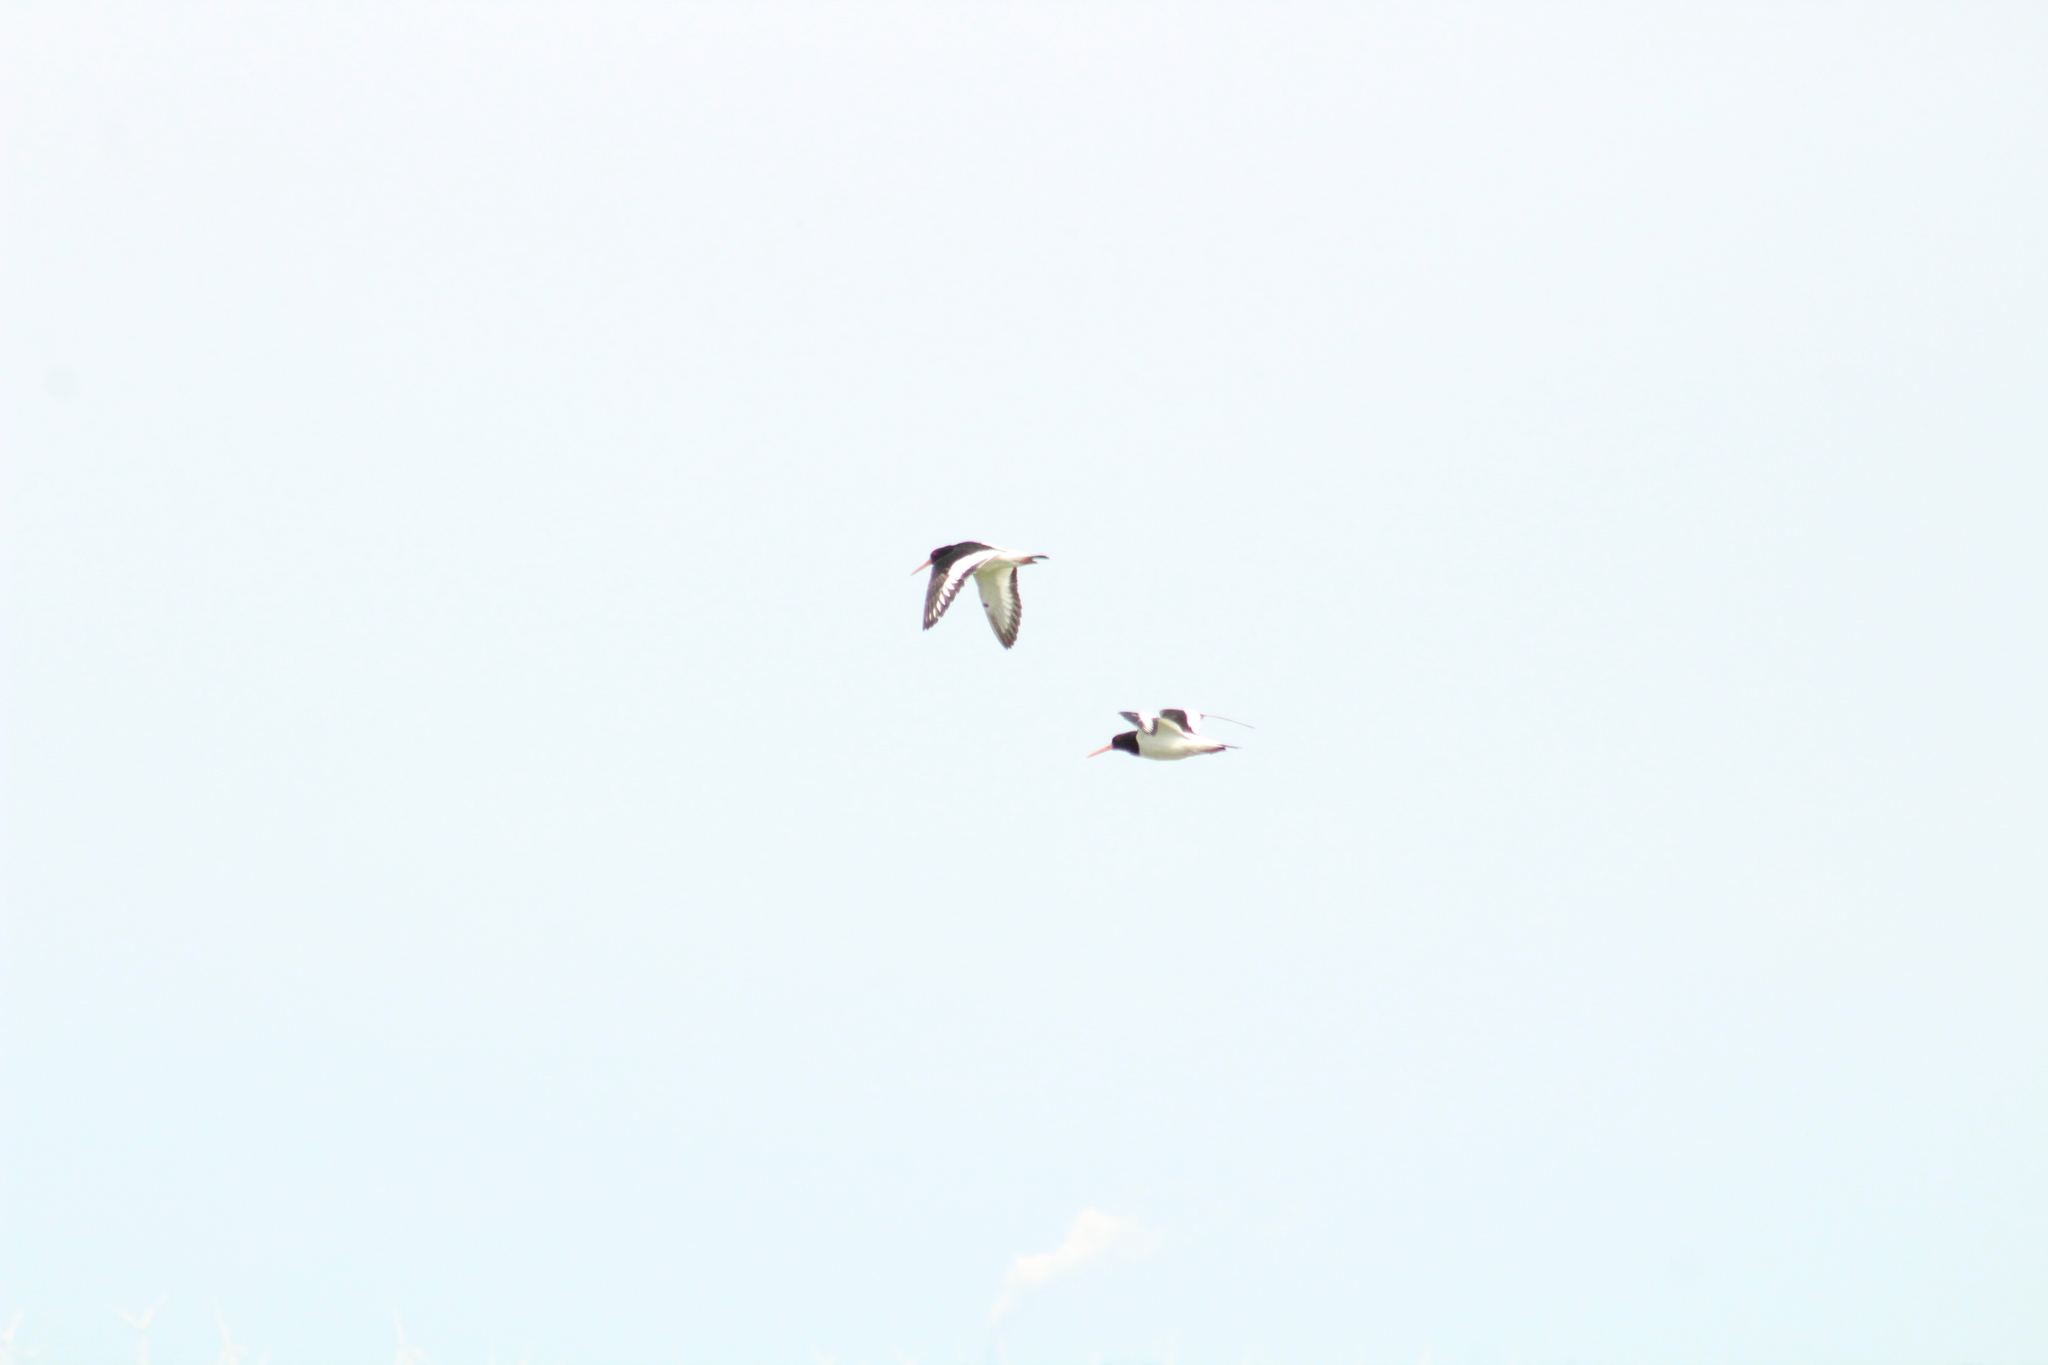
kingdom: Animalia
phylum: Chordata
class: Aves
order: Charadriiformes
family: Haematopodidae
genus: Haematopus
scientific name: Haematopus ostralegus
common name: Eurasian oystercatcher
